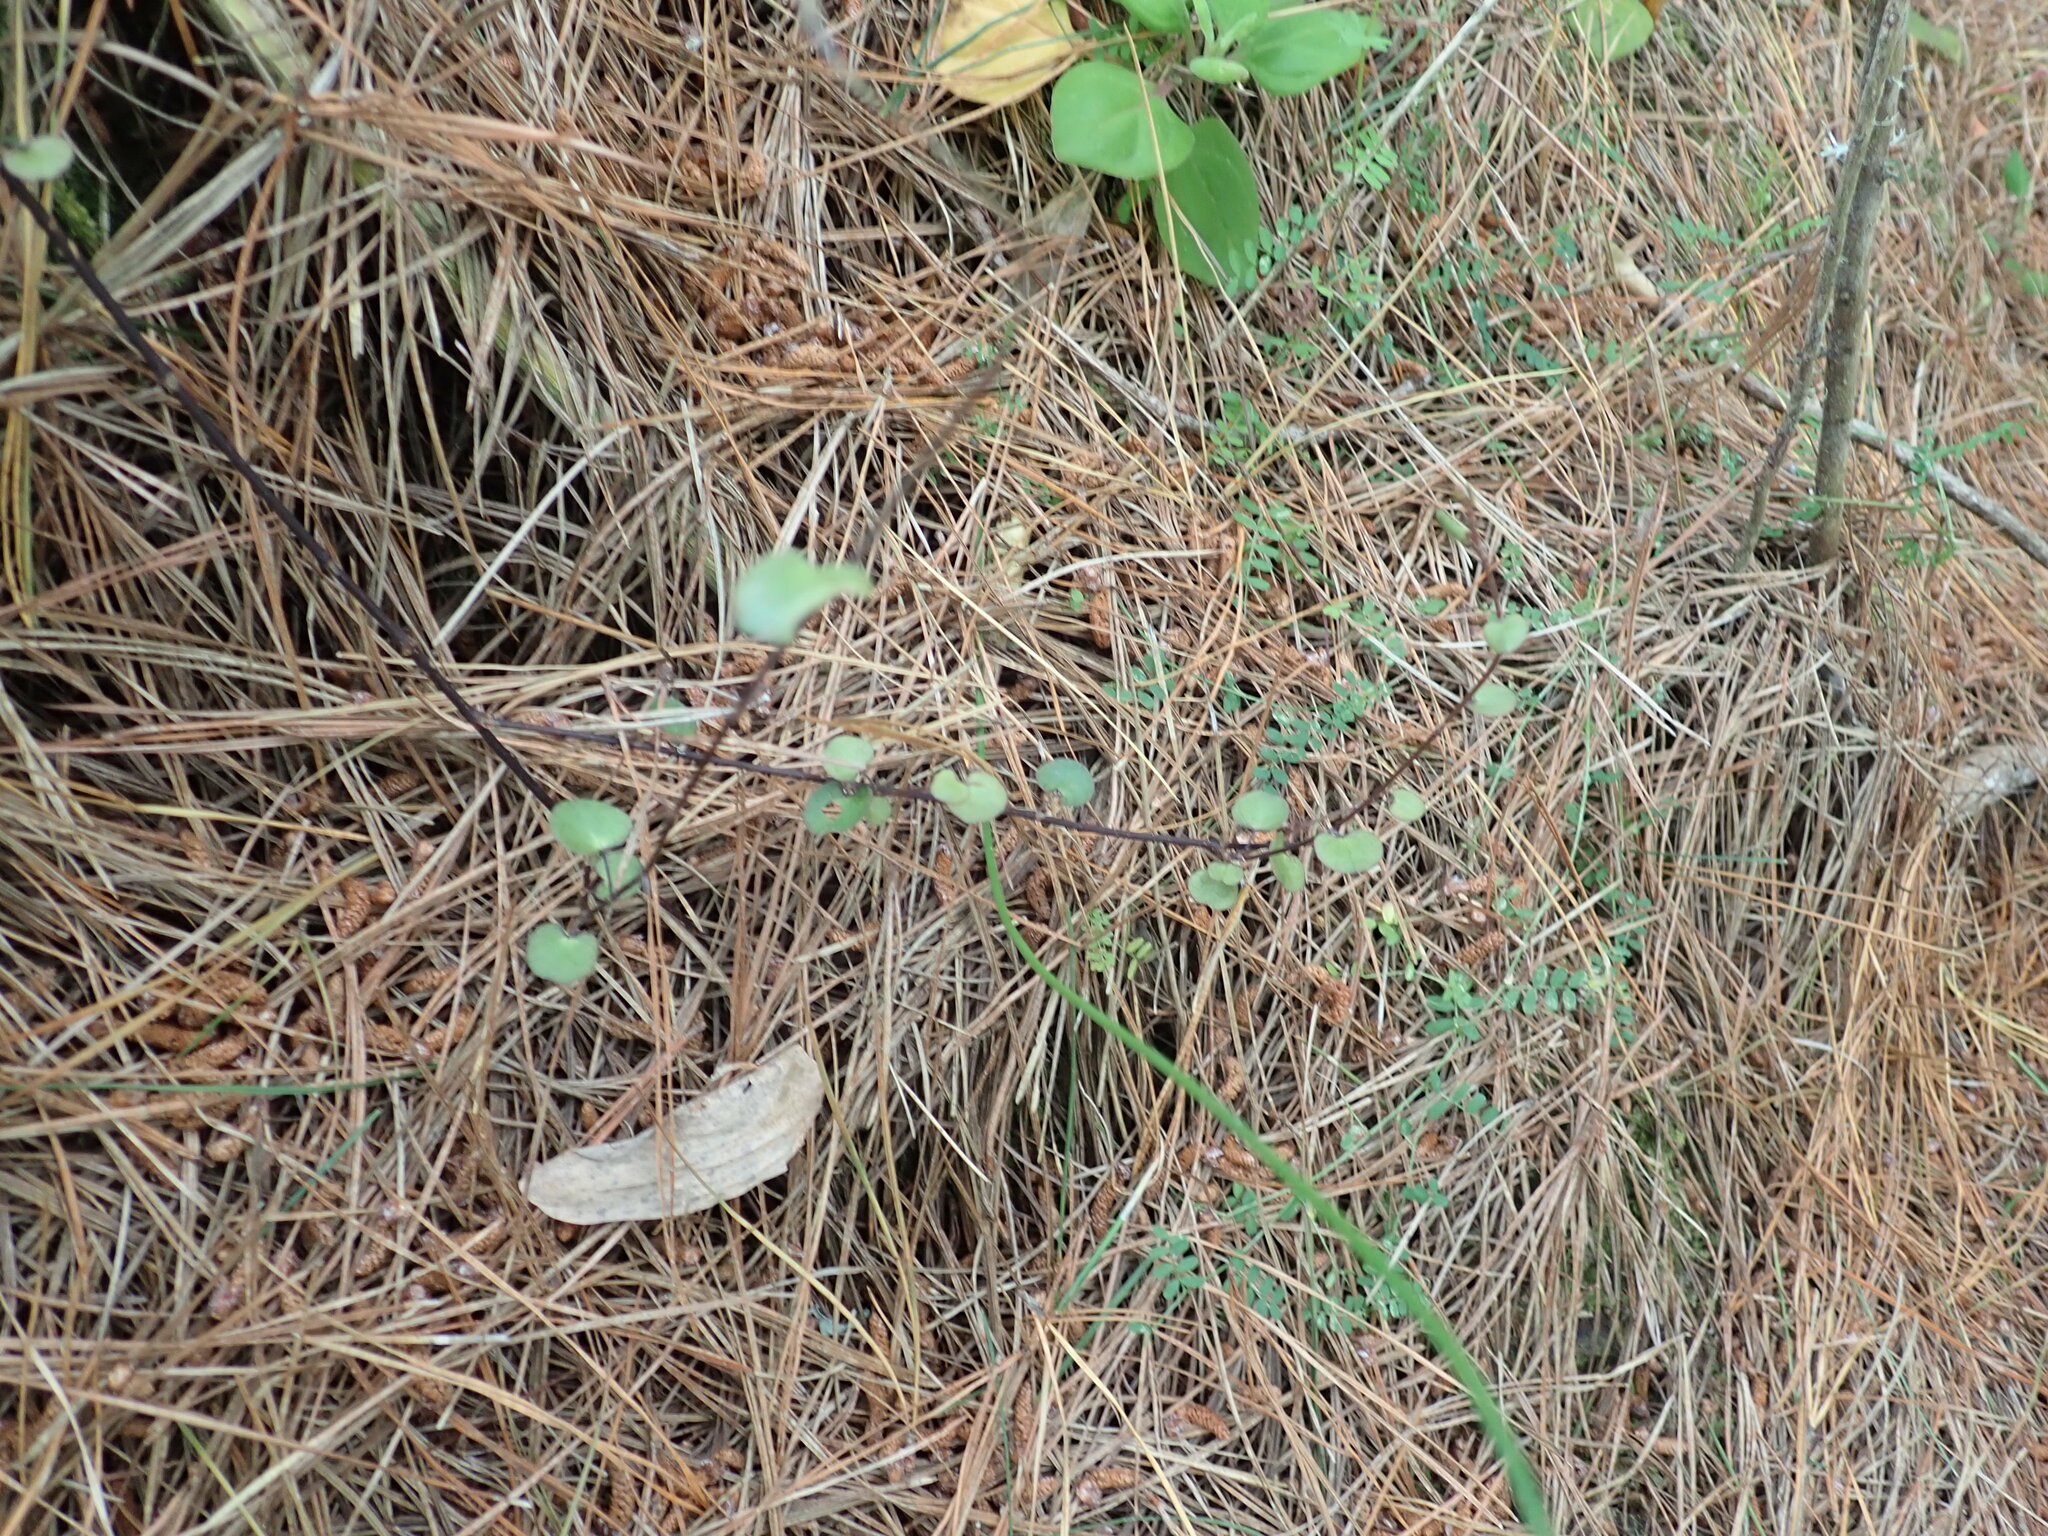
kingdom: Plantae
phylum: Tracheophyta
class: Magnoliopsida
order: Caryophyllales
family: Polygonaceae
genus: Muehlenbeckia
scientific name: Muehlenbeckia complexa
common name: Wireplant
